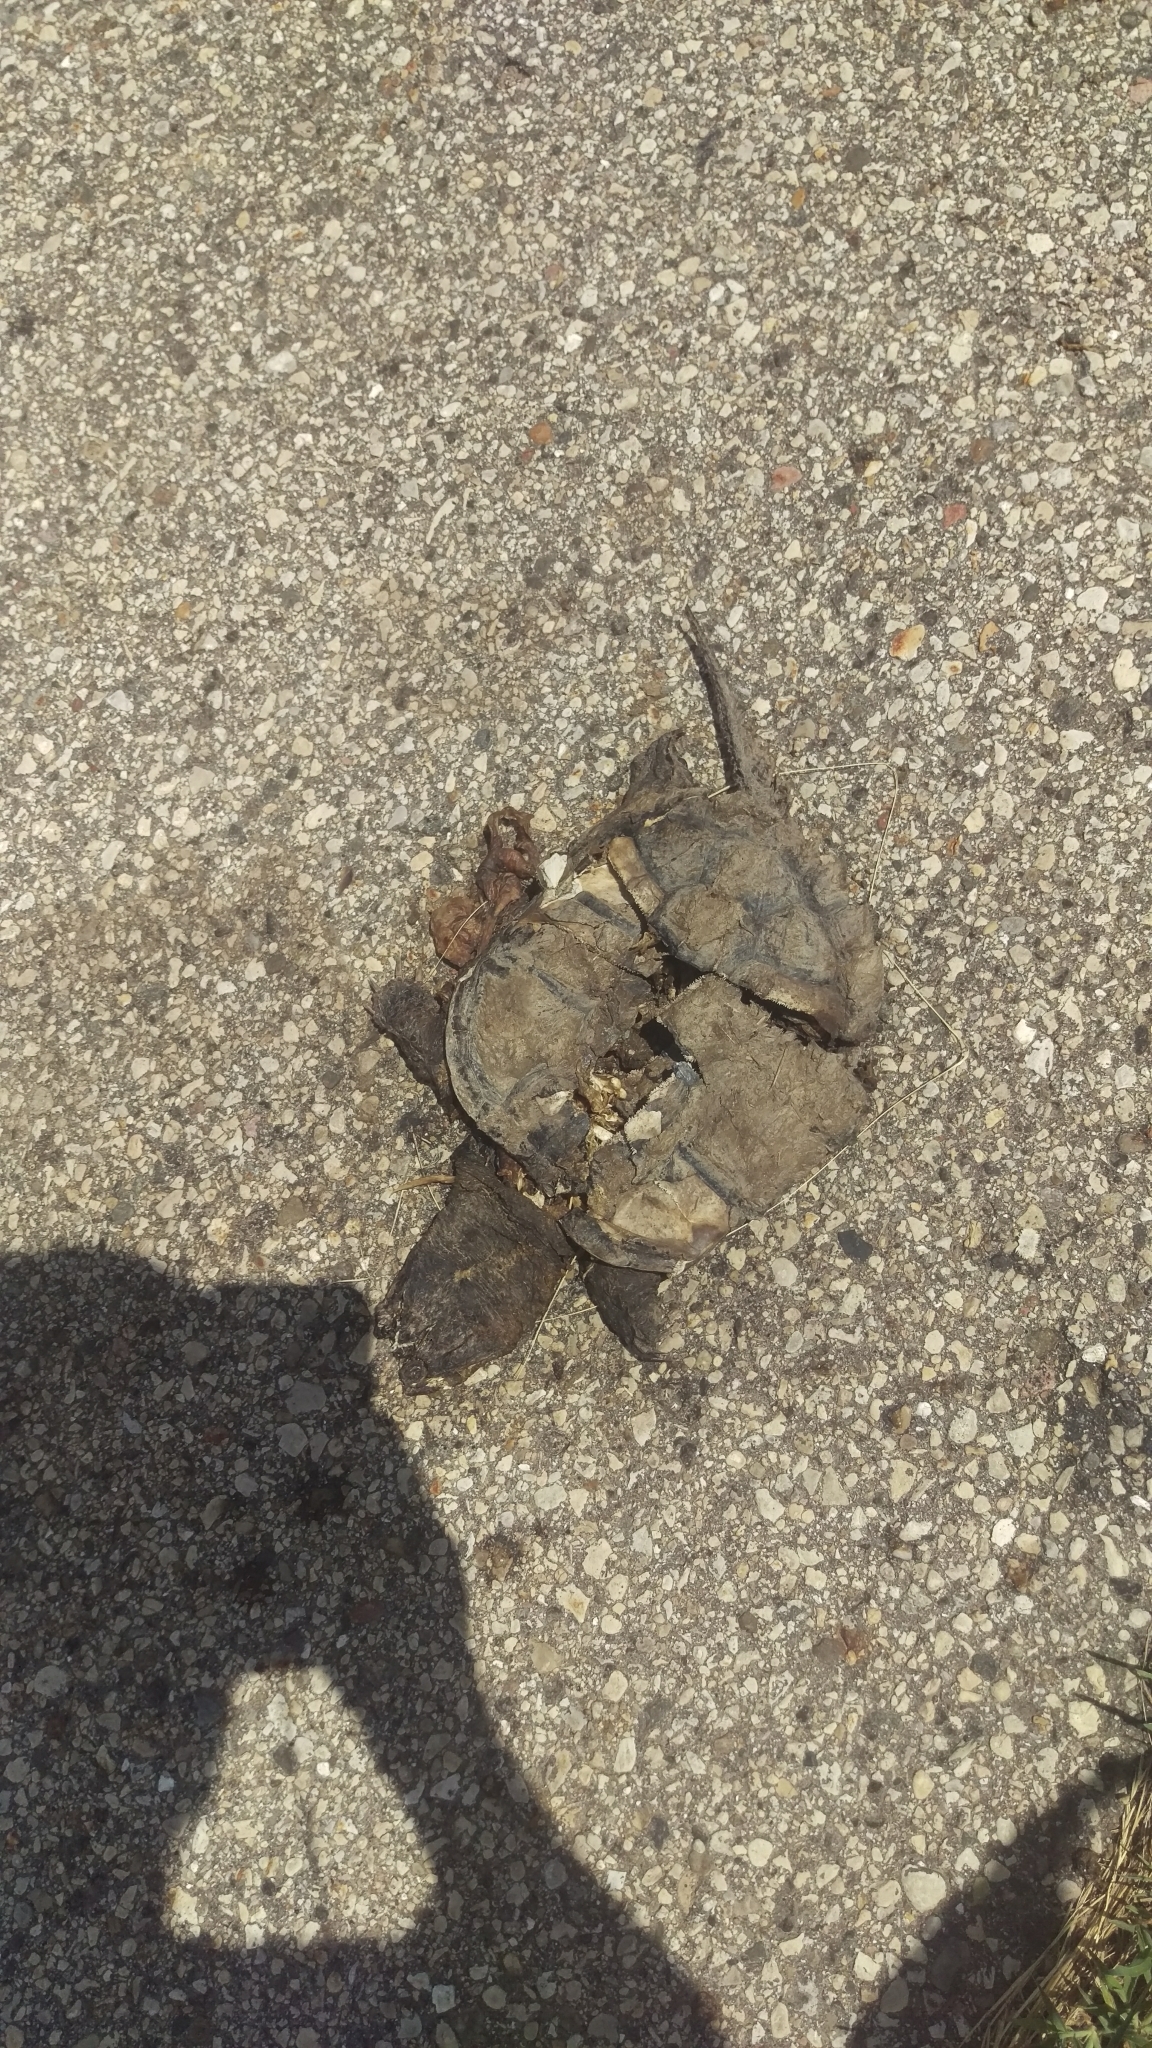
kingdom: Animalia
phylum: Chordata
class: Testudines
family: Chelydridae
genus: Chelydra
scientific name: Chelydra serpentina
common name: Common snapping turtle
